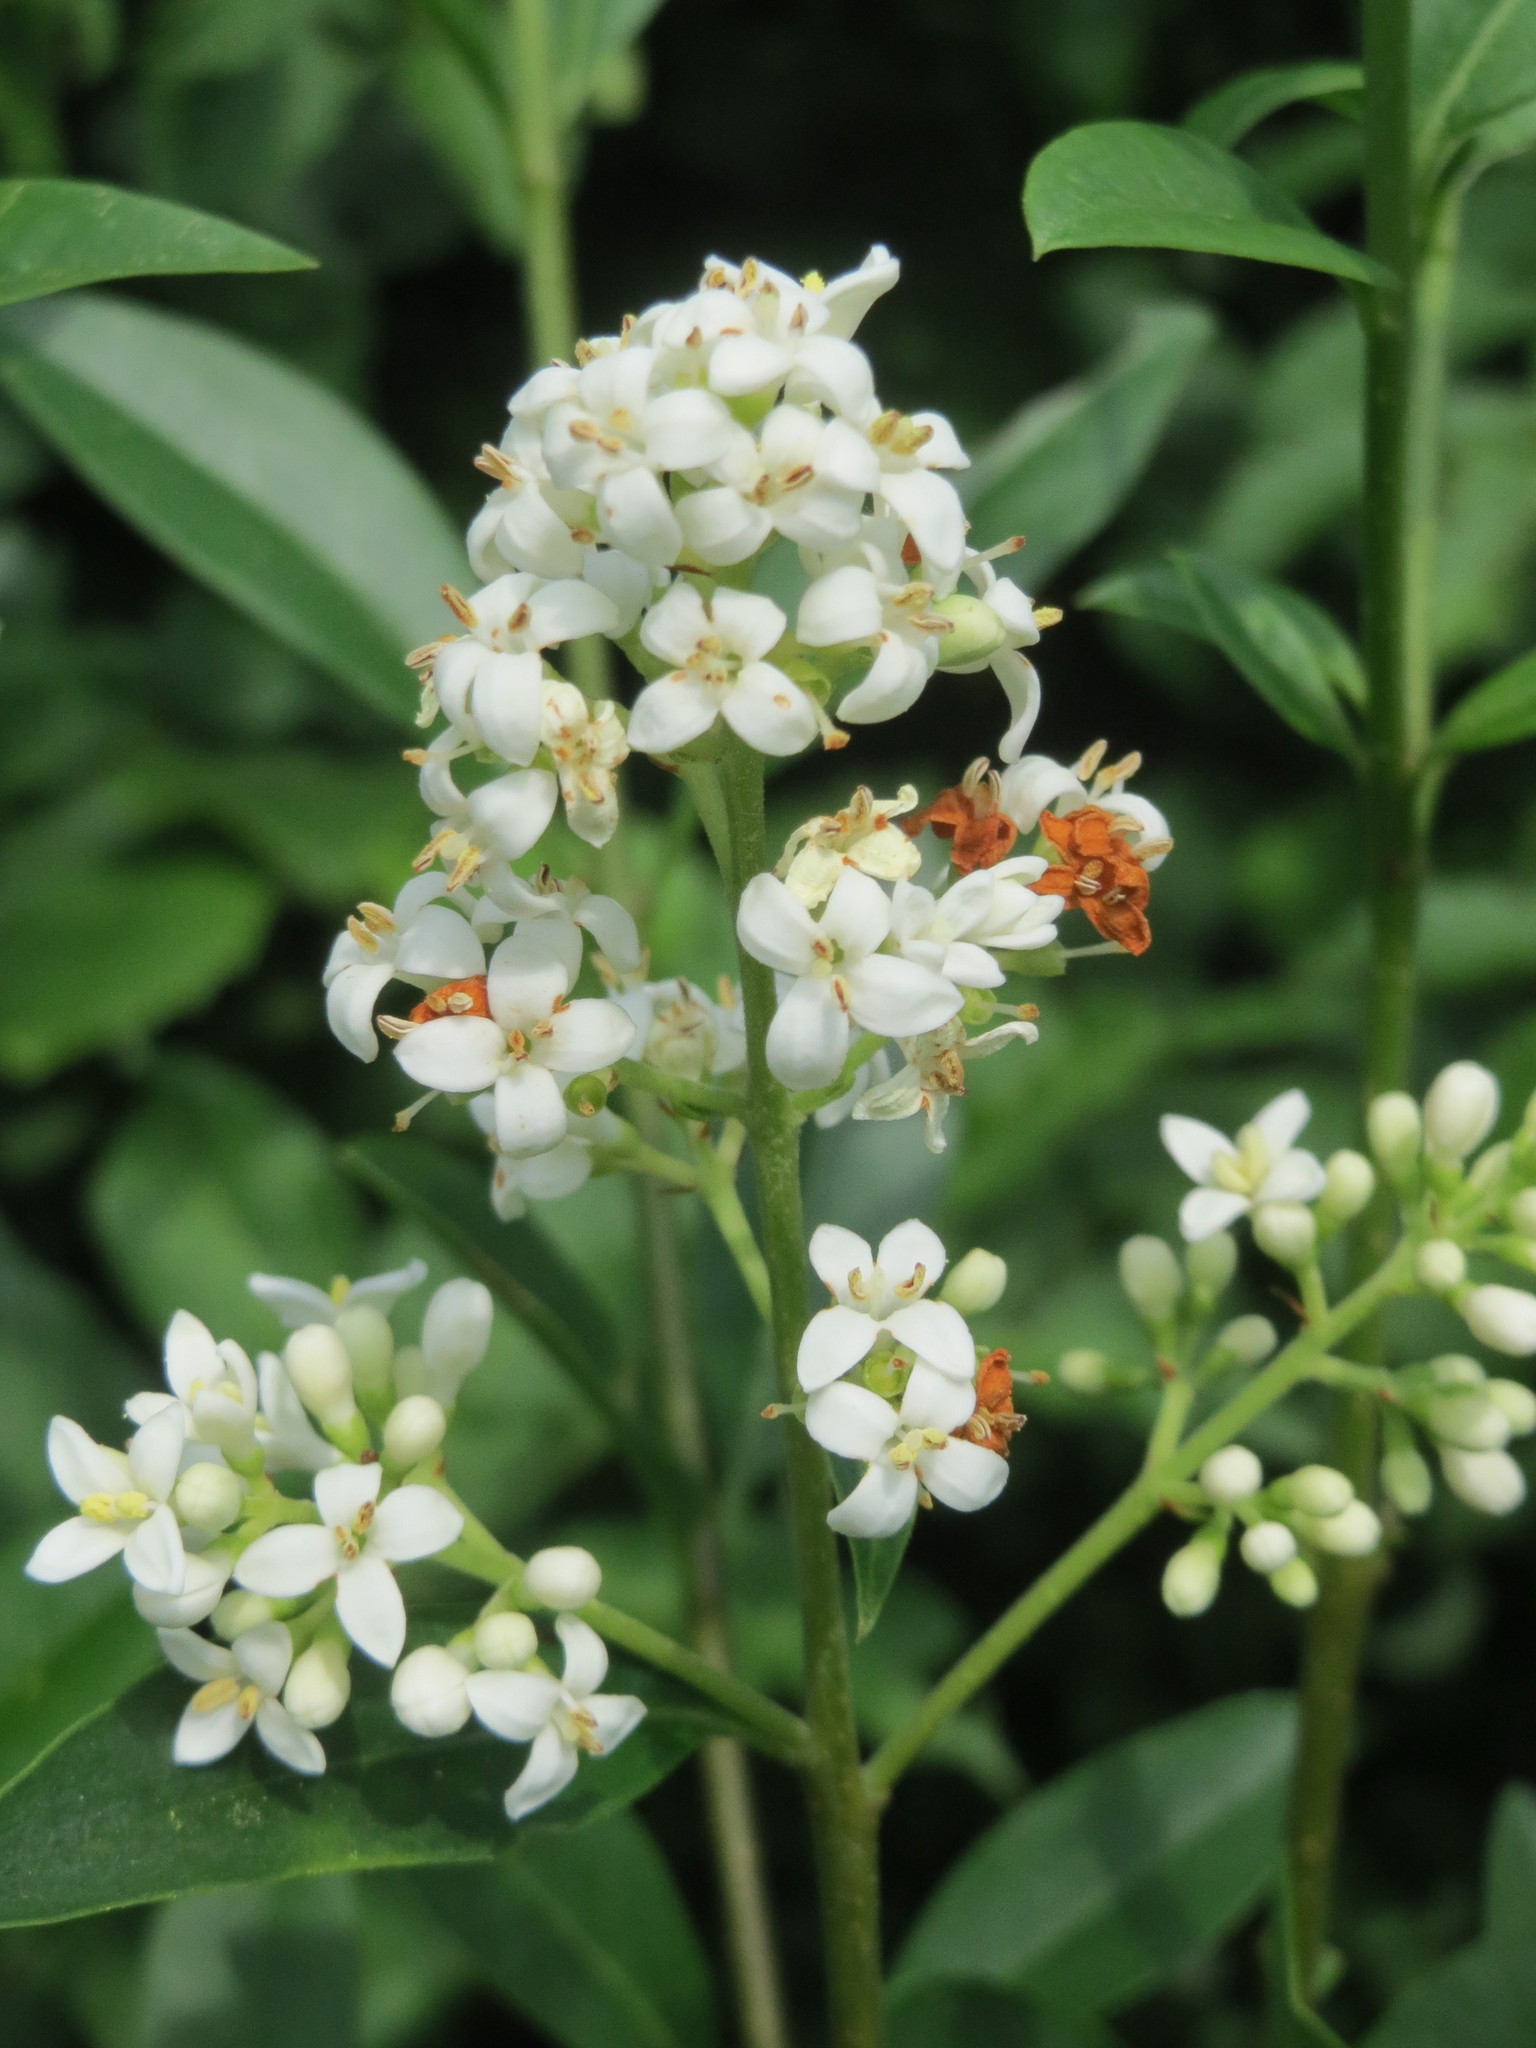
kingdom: Plantae
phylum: Tracheophyta
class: Magnoliopsida
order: Lamiales
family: Oleaceae
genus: Ligustrum
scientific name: Ligustrum vulgare
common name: Wild privet
